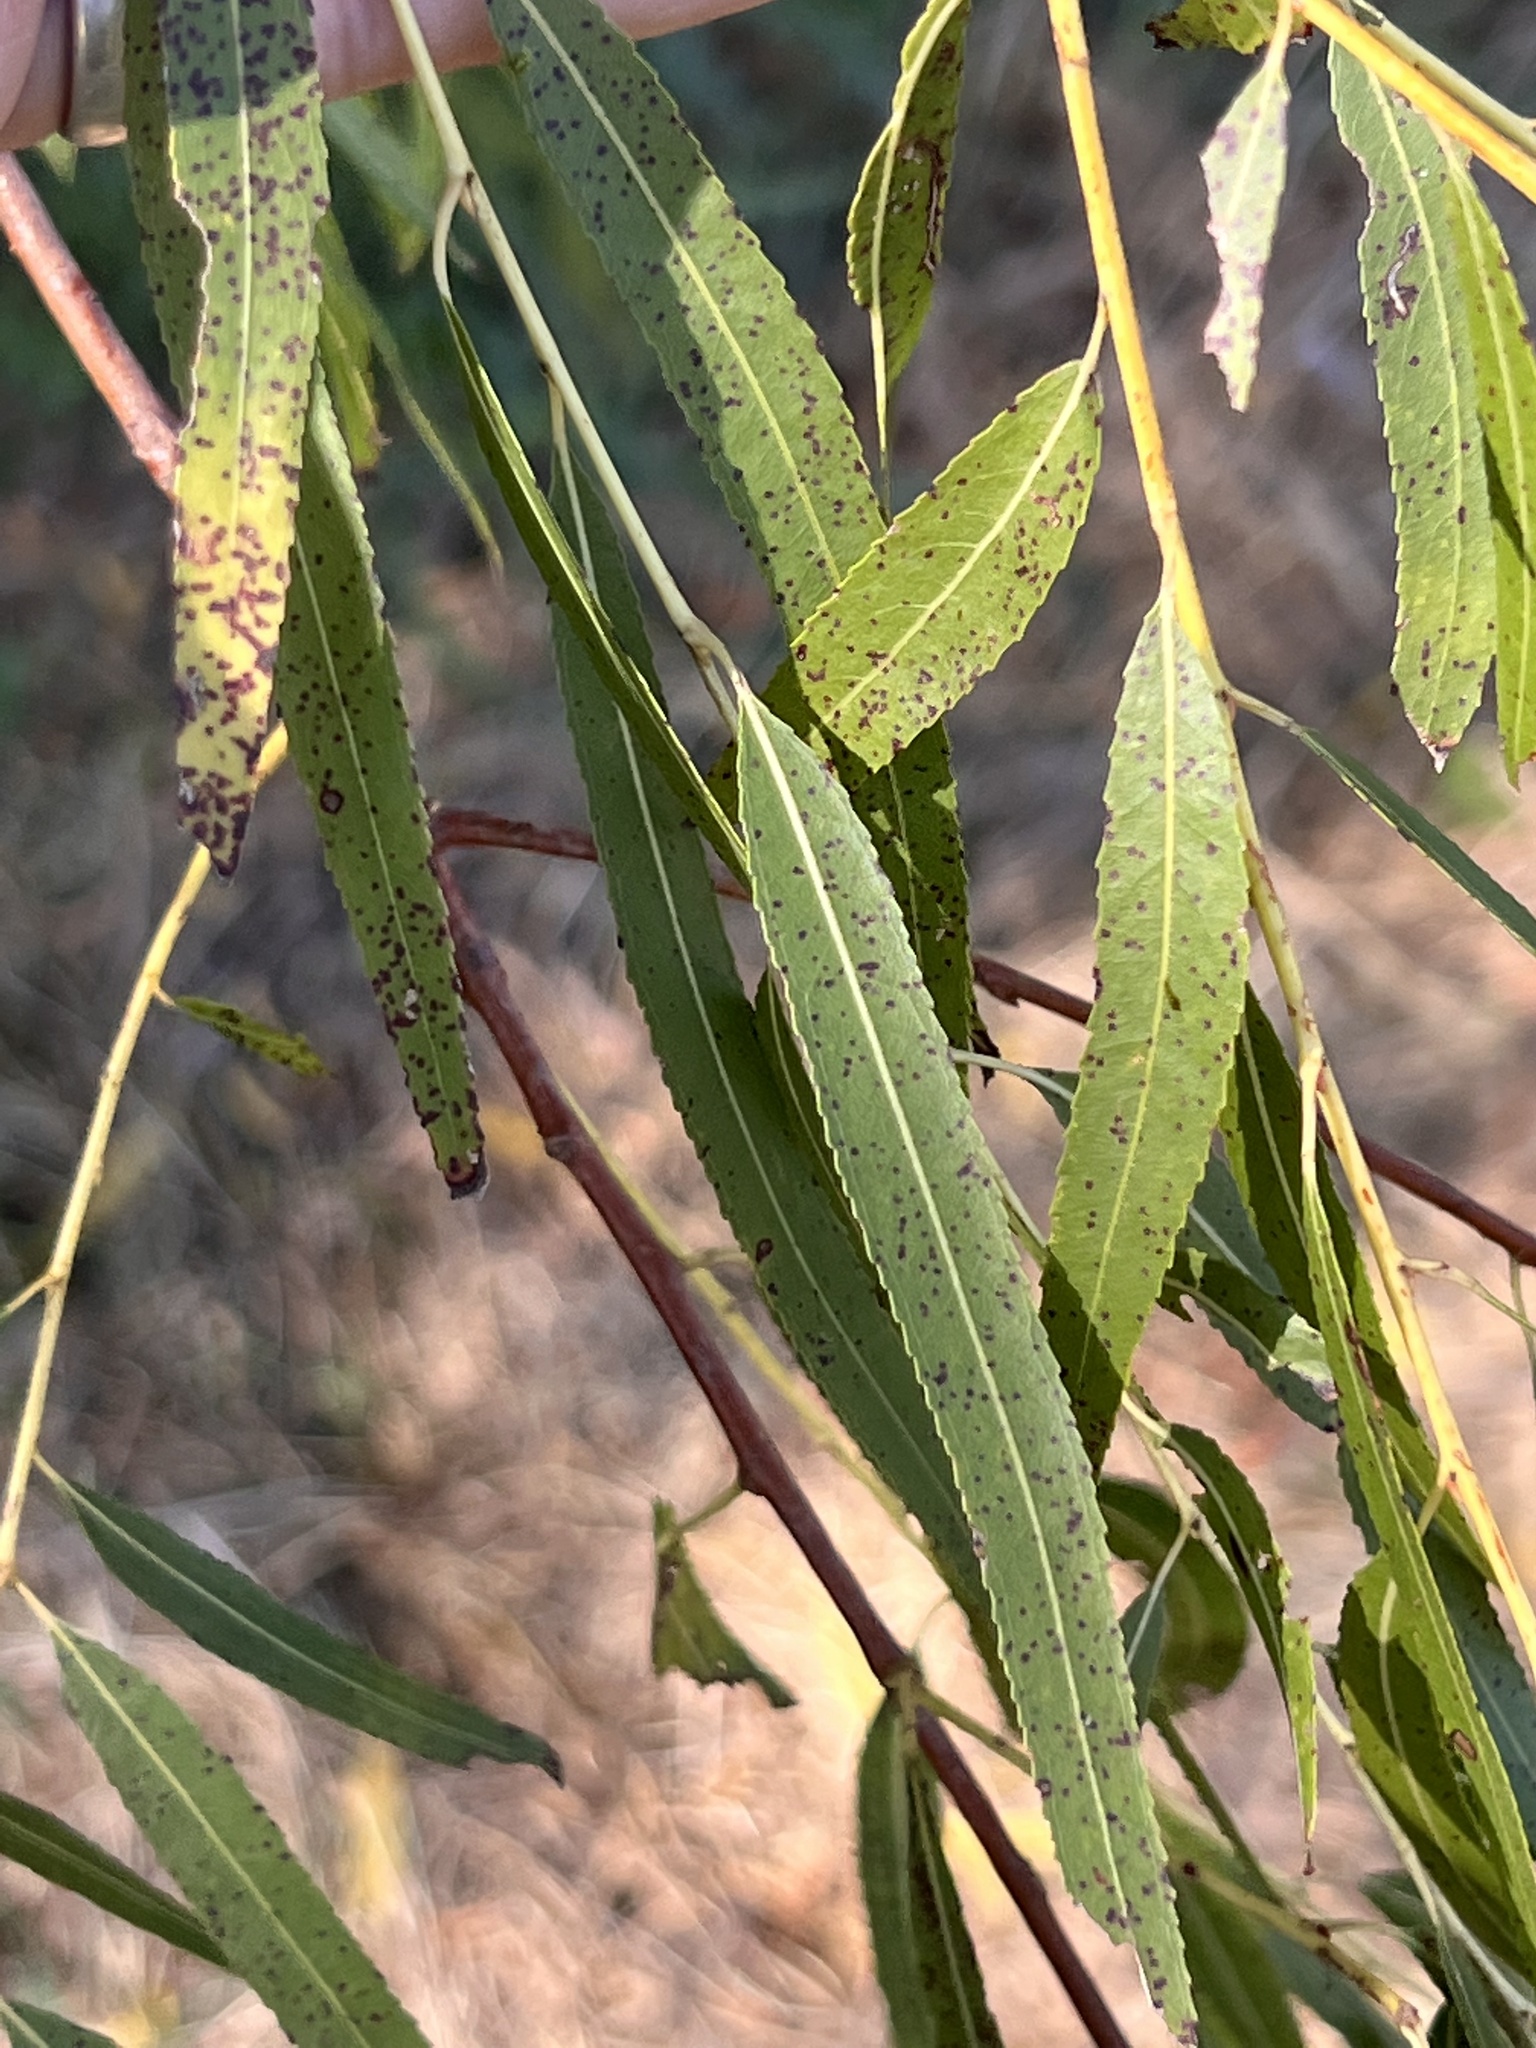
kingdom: Plantae
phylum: Tracheophyta
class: Magnoliopsida
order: Malpighiales
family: Salicaceae
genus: Salix
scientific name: Salix nigra
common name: Black willow
